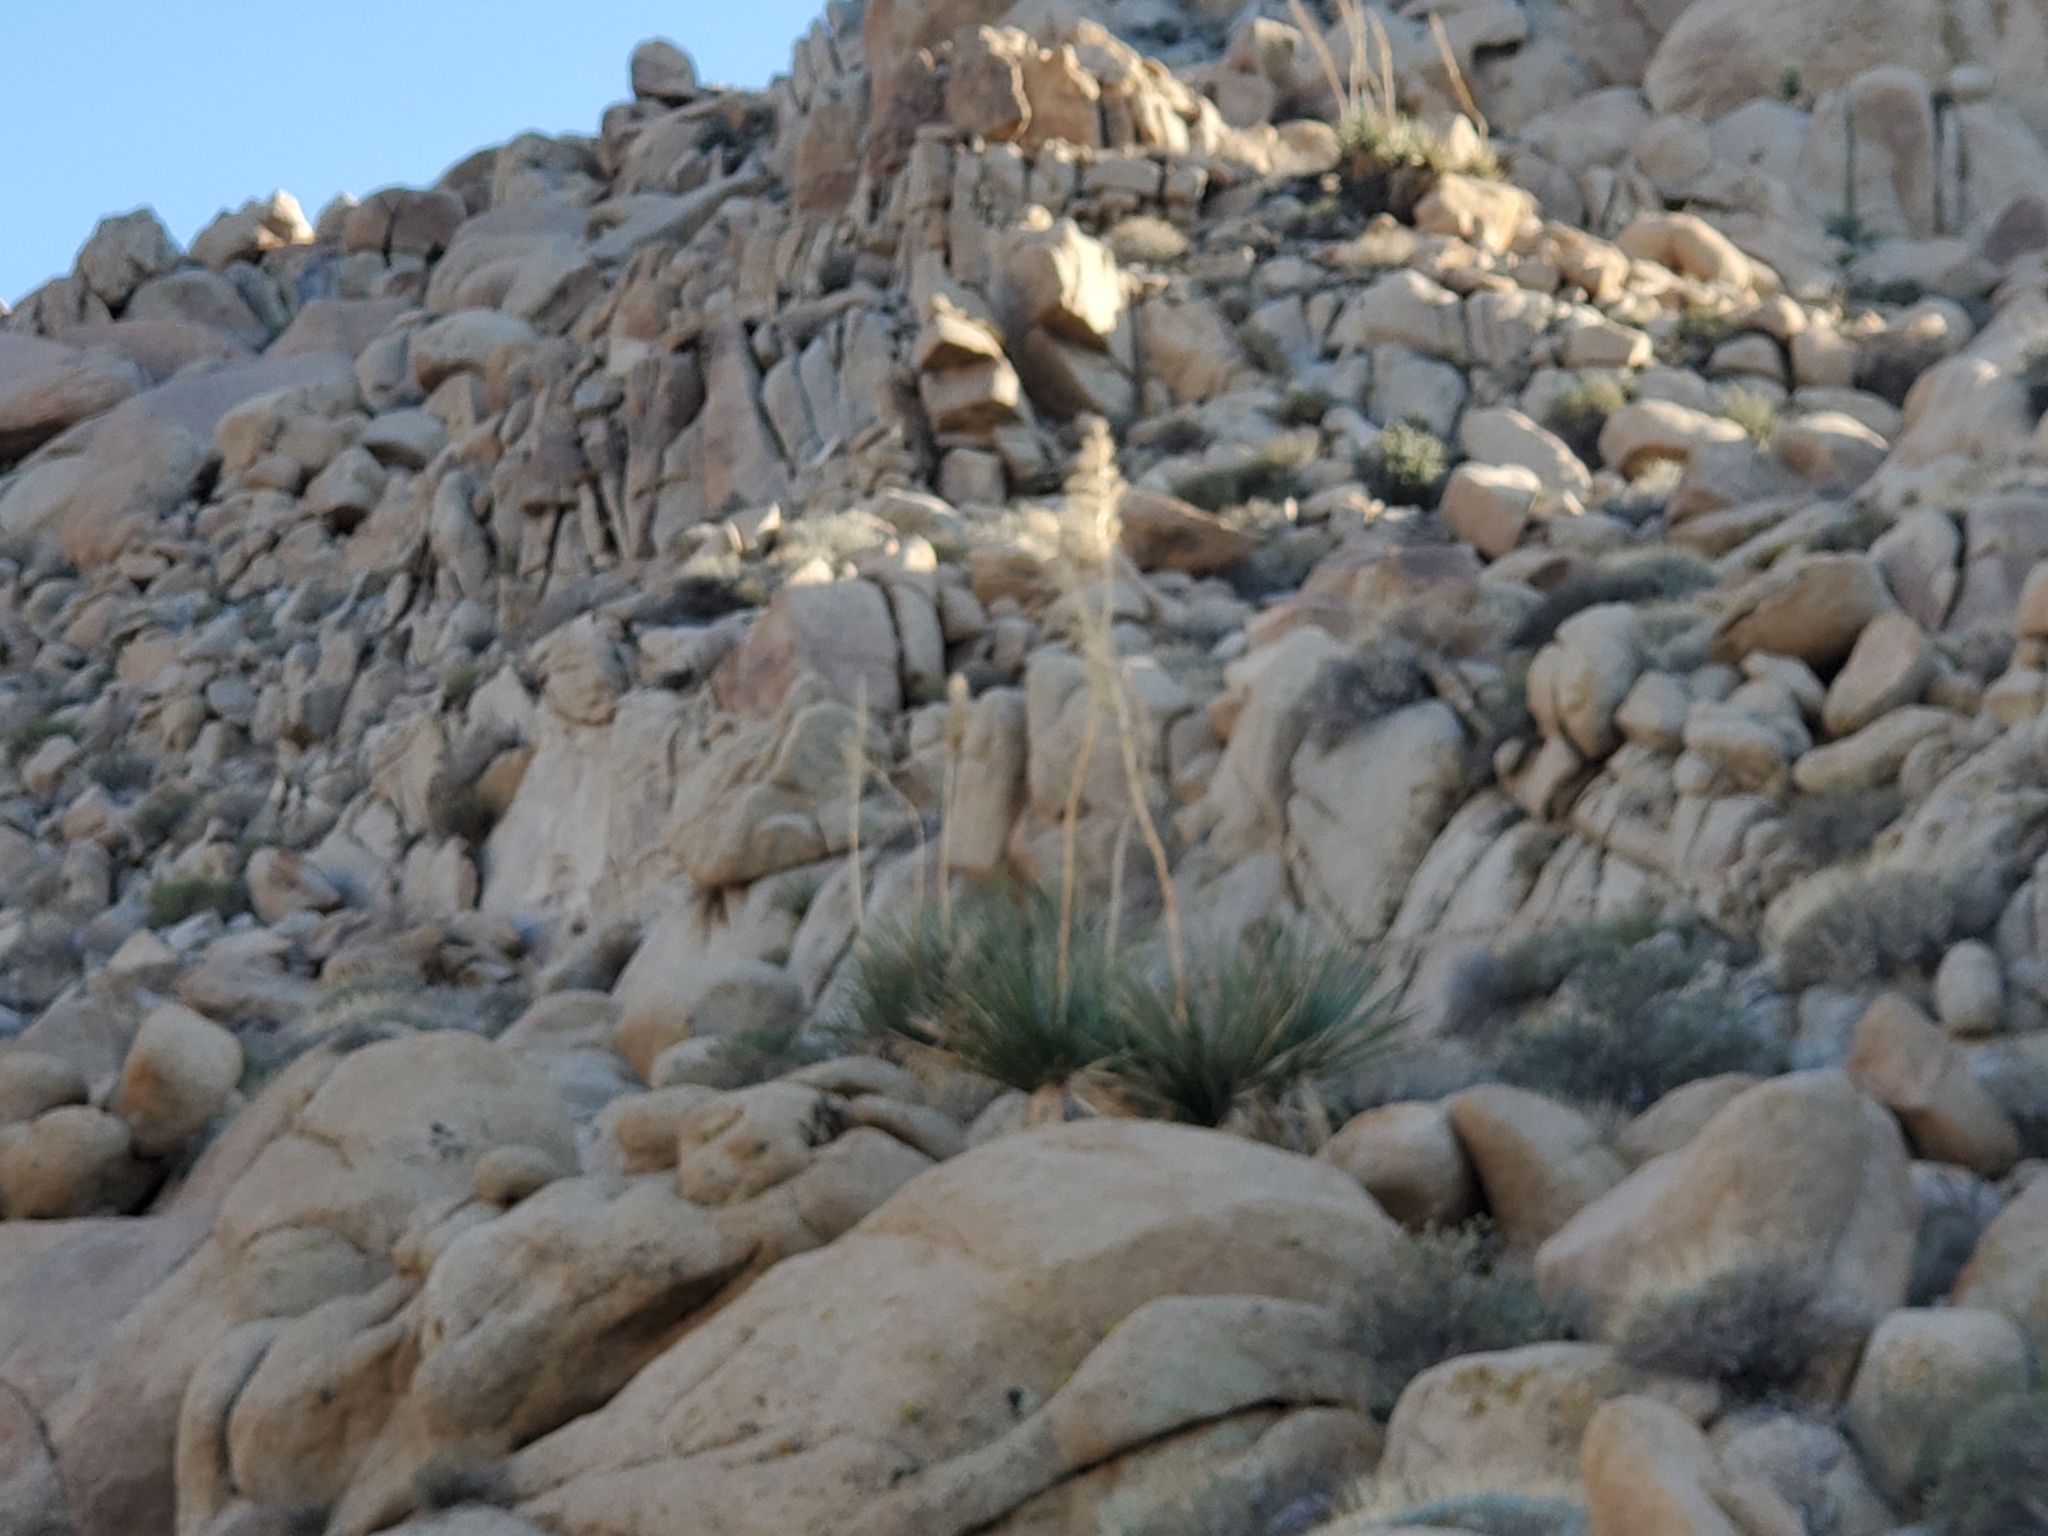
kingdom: Plantae
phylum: Tracheophyta
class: Liliopsida
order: Asparagales
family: Asparagaceae
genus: Nolina
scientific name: Nolina bigelovii
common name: Bigelow bear-grass
